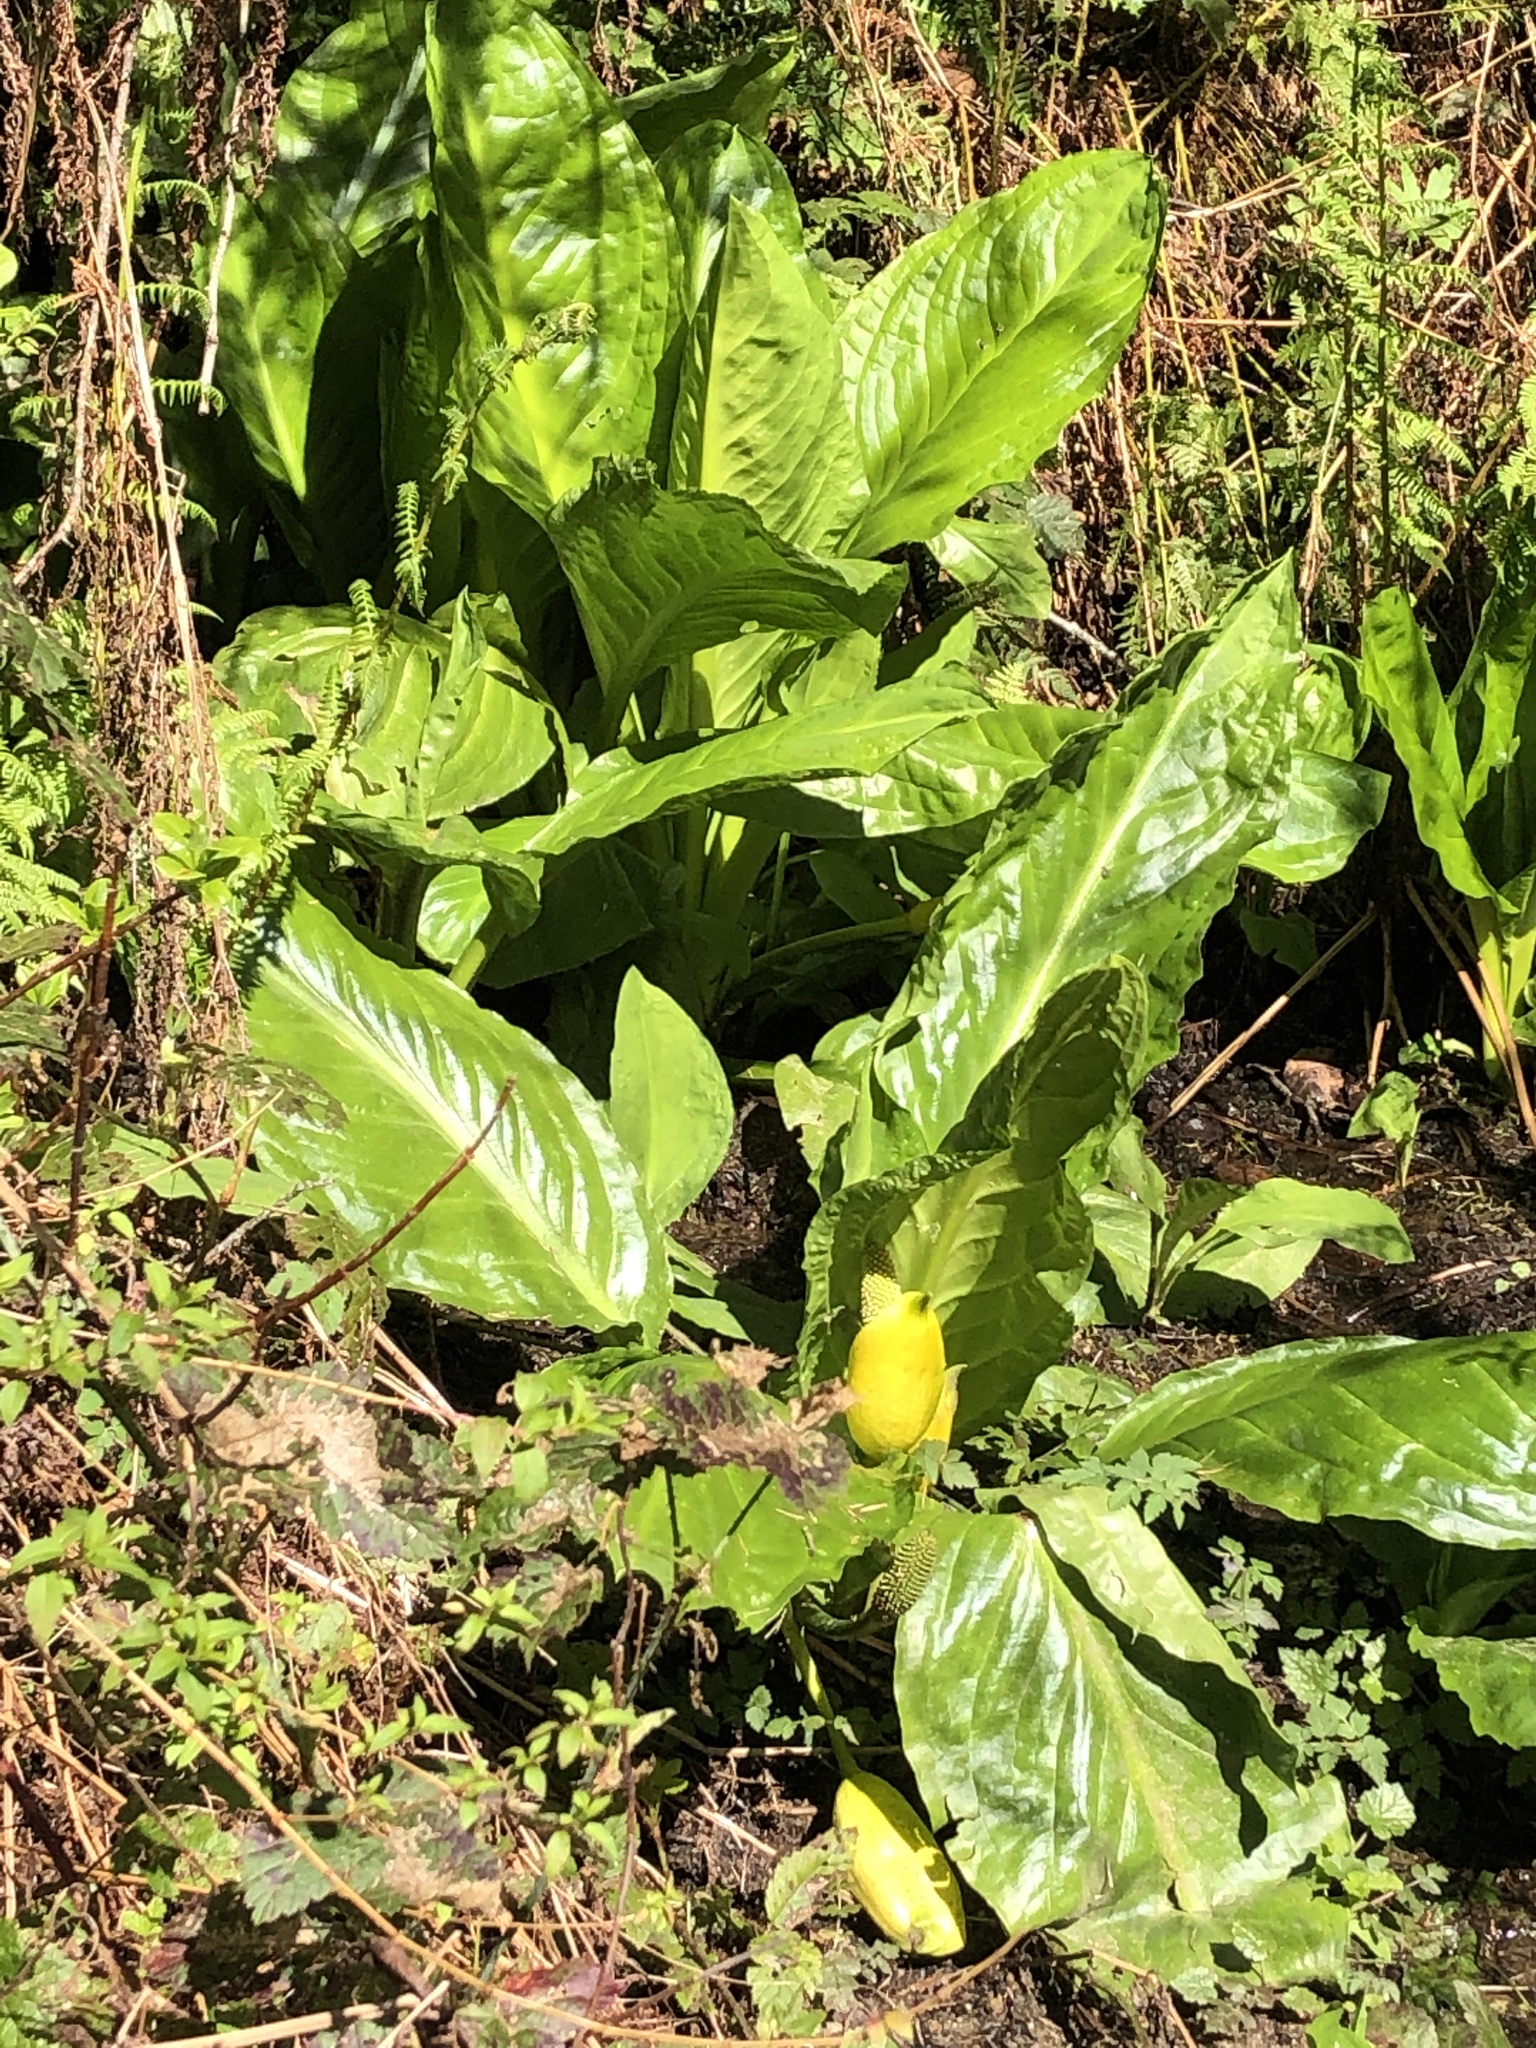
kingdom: Plantae
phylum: Tracheophyta
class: Liliopsida
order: Alismatales
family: Araceae
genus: Lysichiton
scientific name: Lysichiton americanus
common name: American skunk cabbage
